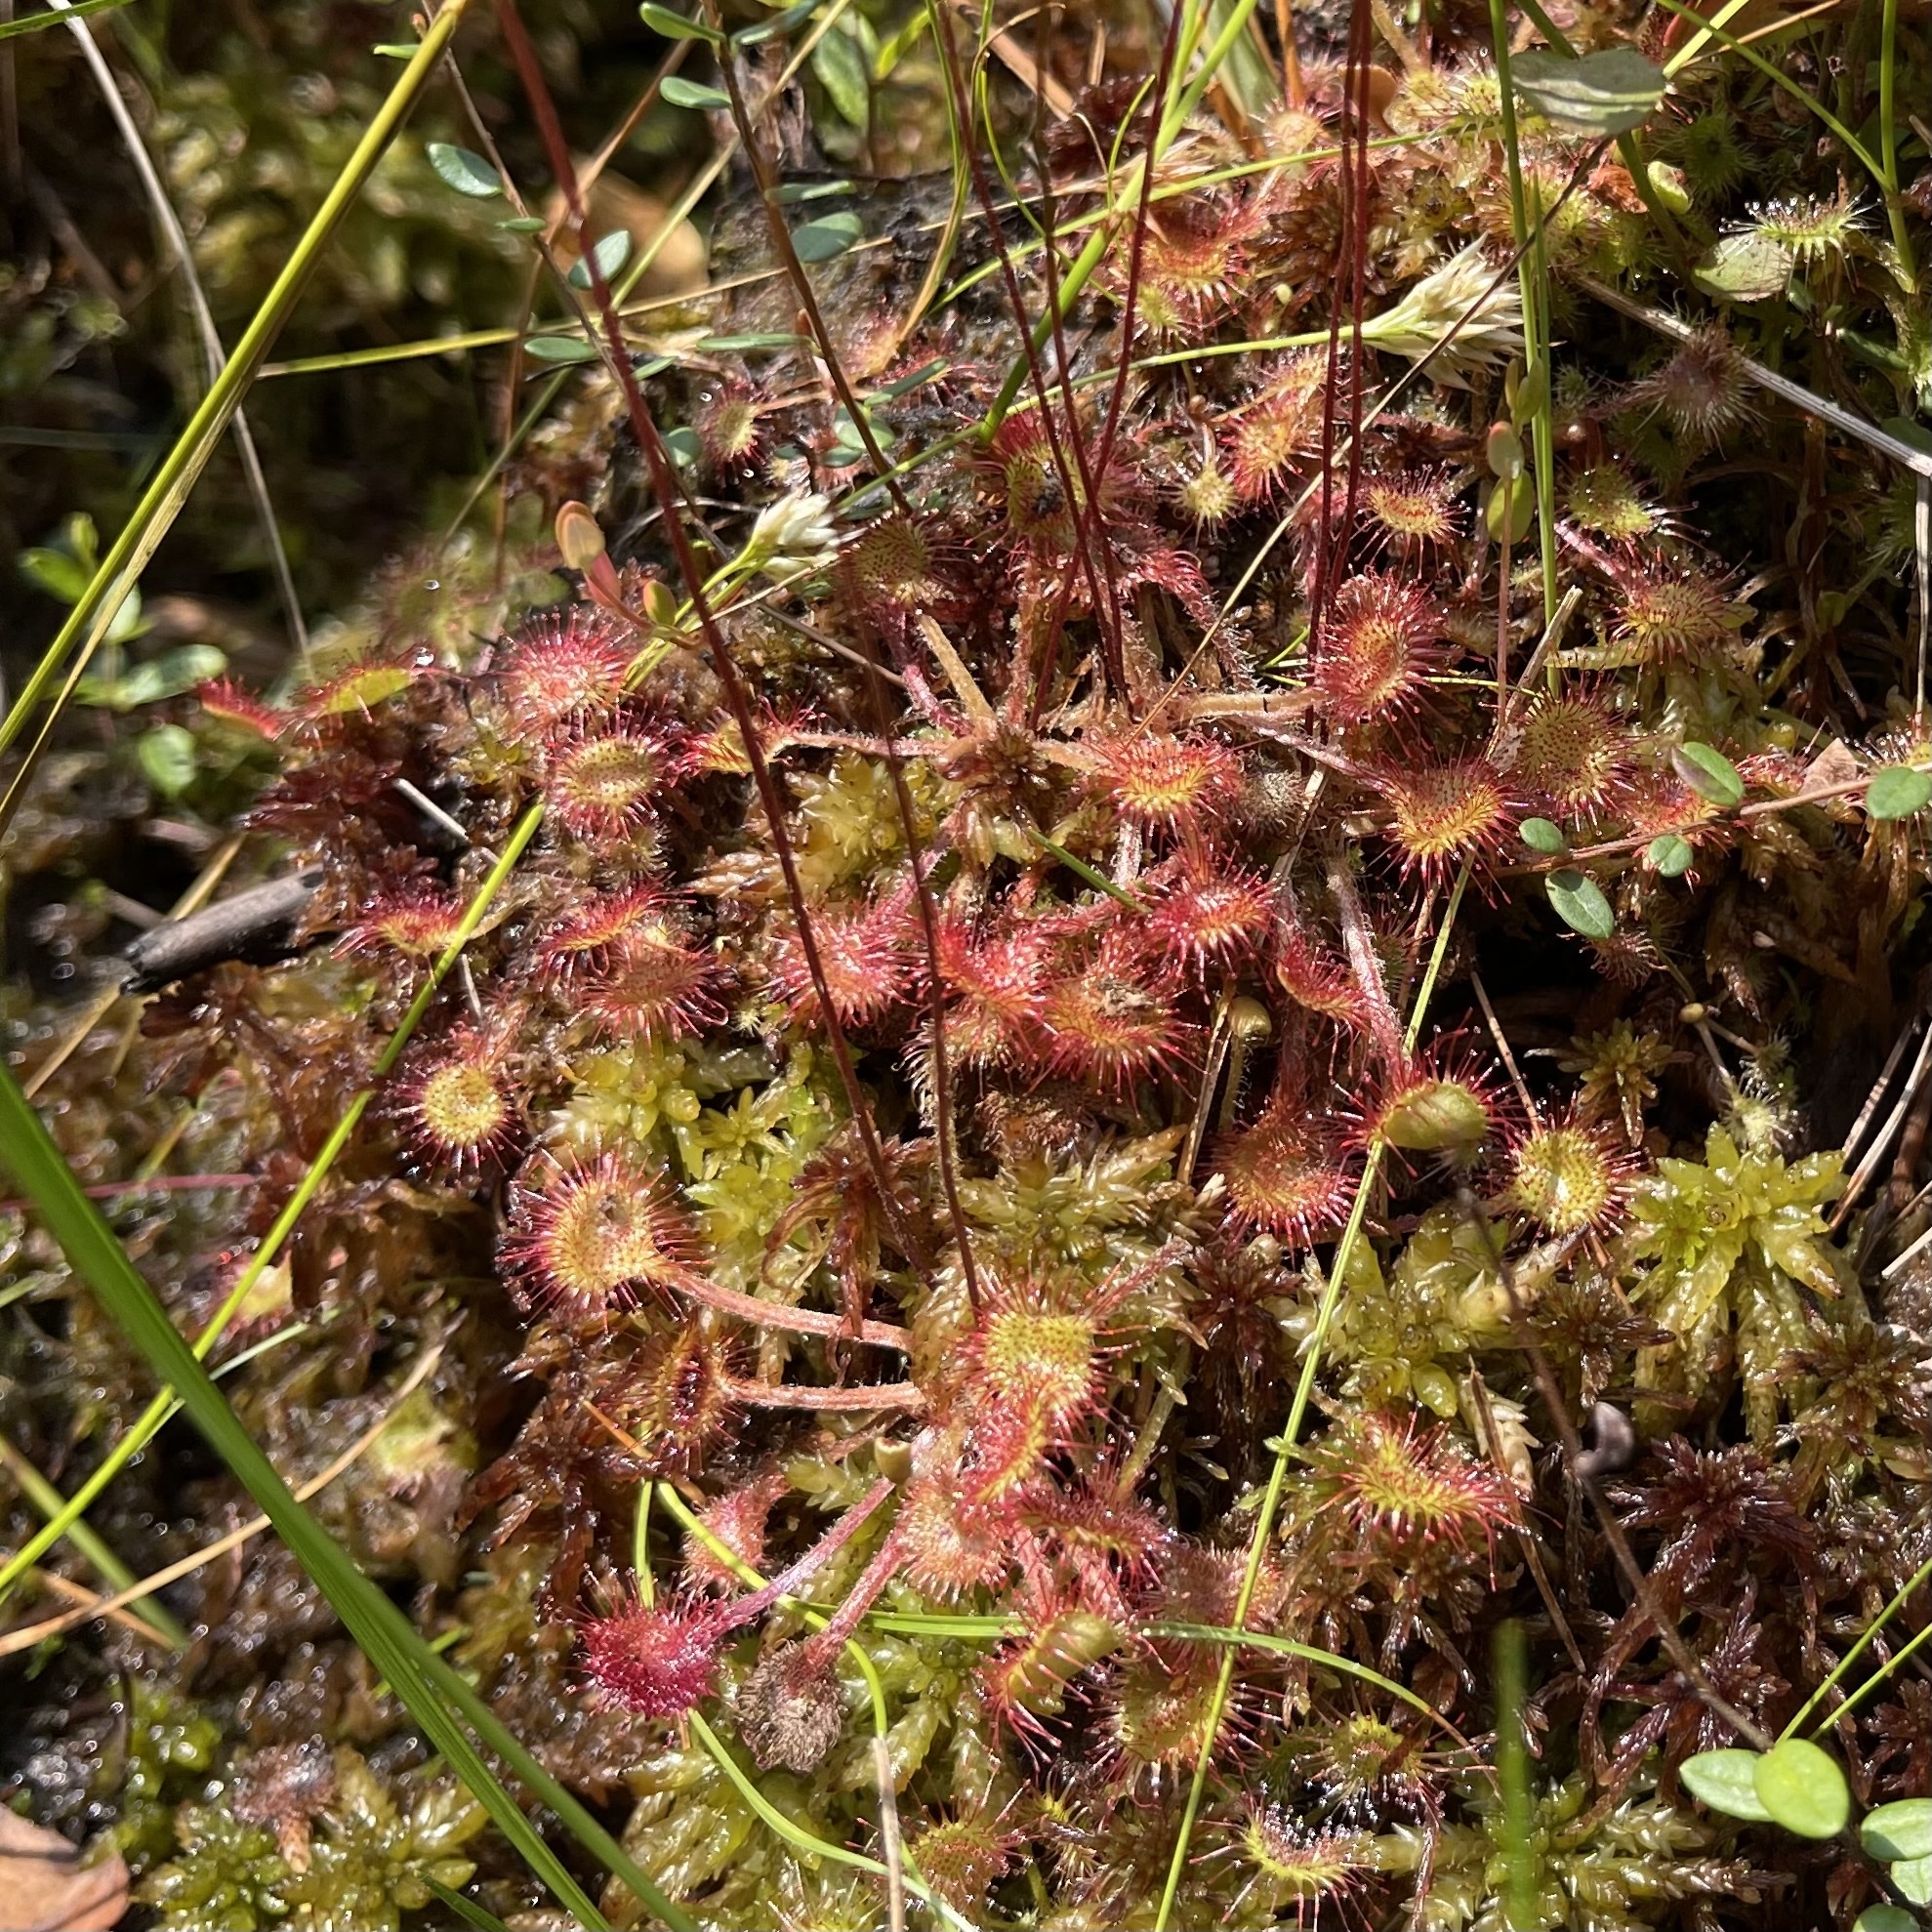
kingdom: Plantae
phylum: Tracheophyta
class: Magnoliopsida
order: Caryophyllales
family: Droseraceae
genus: Drosera
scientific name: Drosera rotundifolia
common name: Round-leaved sundew
